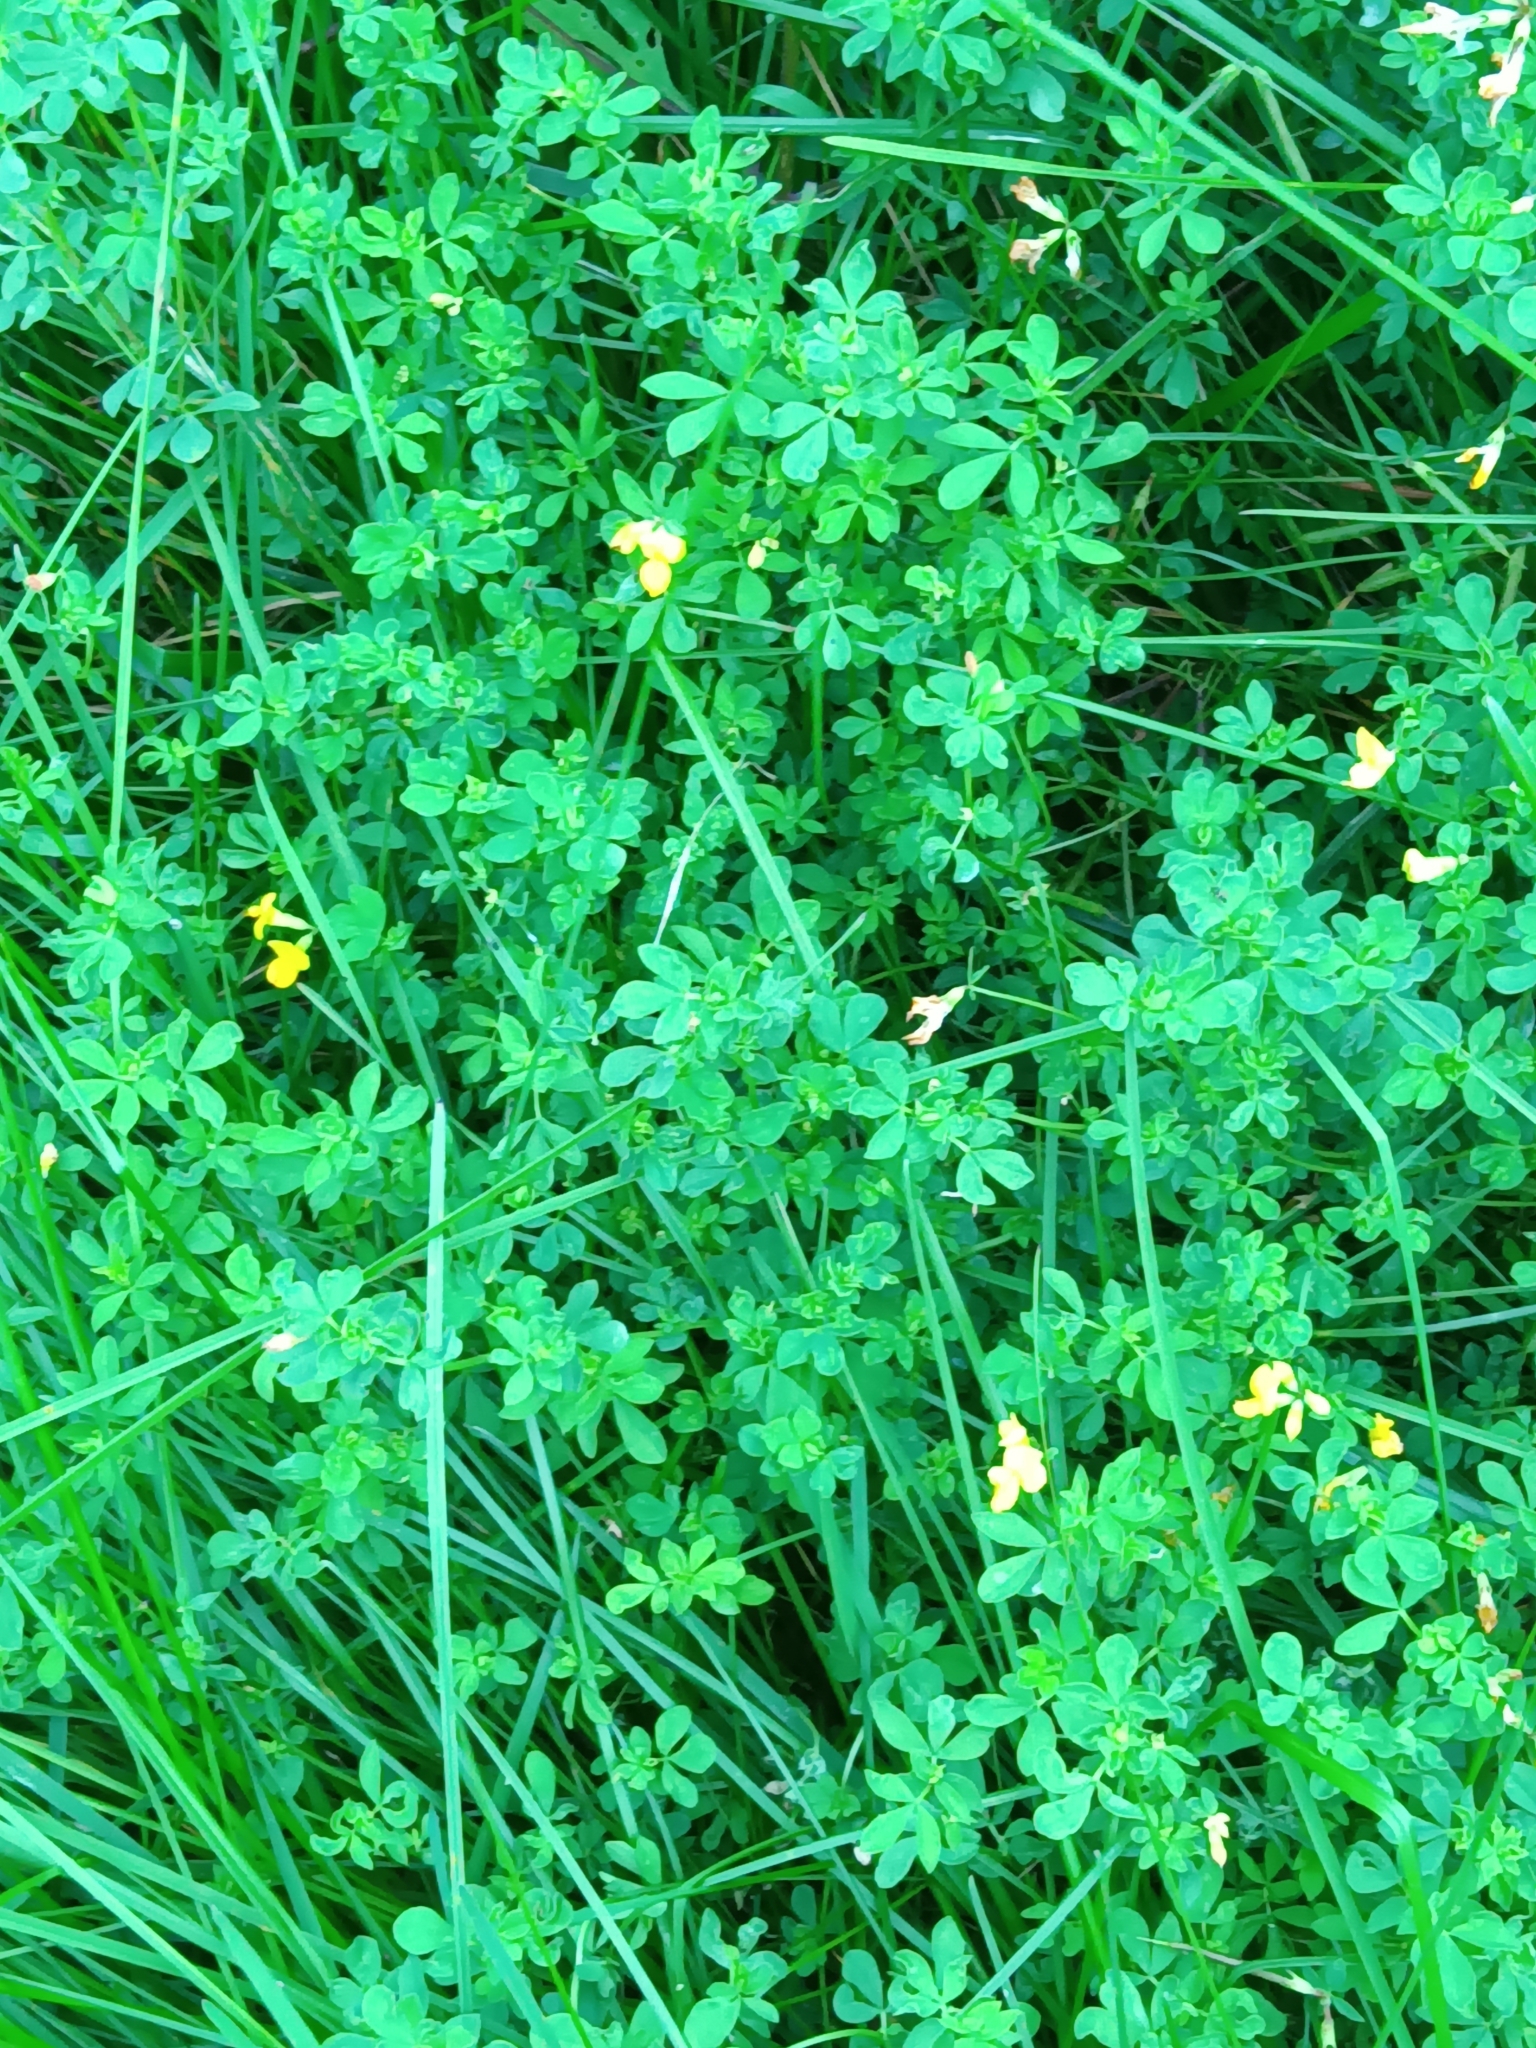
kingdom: Plantae
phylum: Tracheophyta
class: Magnoliopsida
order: Fabales
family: Fabaceae
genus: Lotus
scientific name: Lotus corniculatus
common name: Common bird's-foot-trefoil
